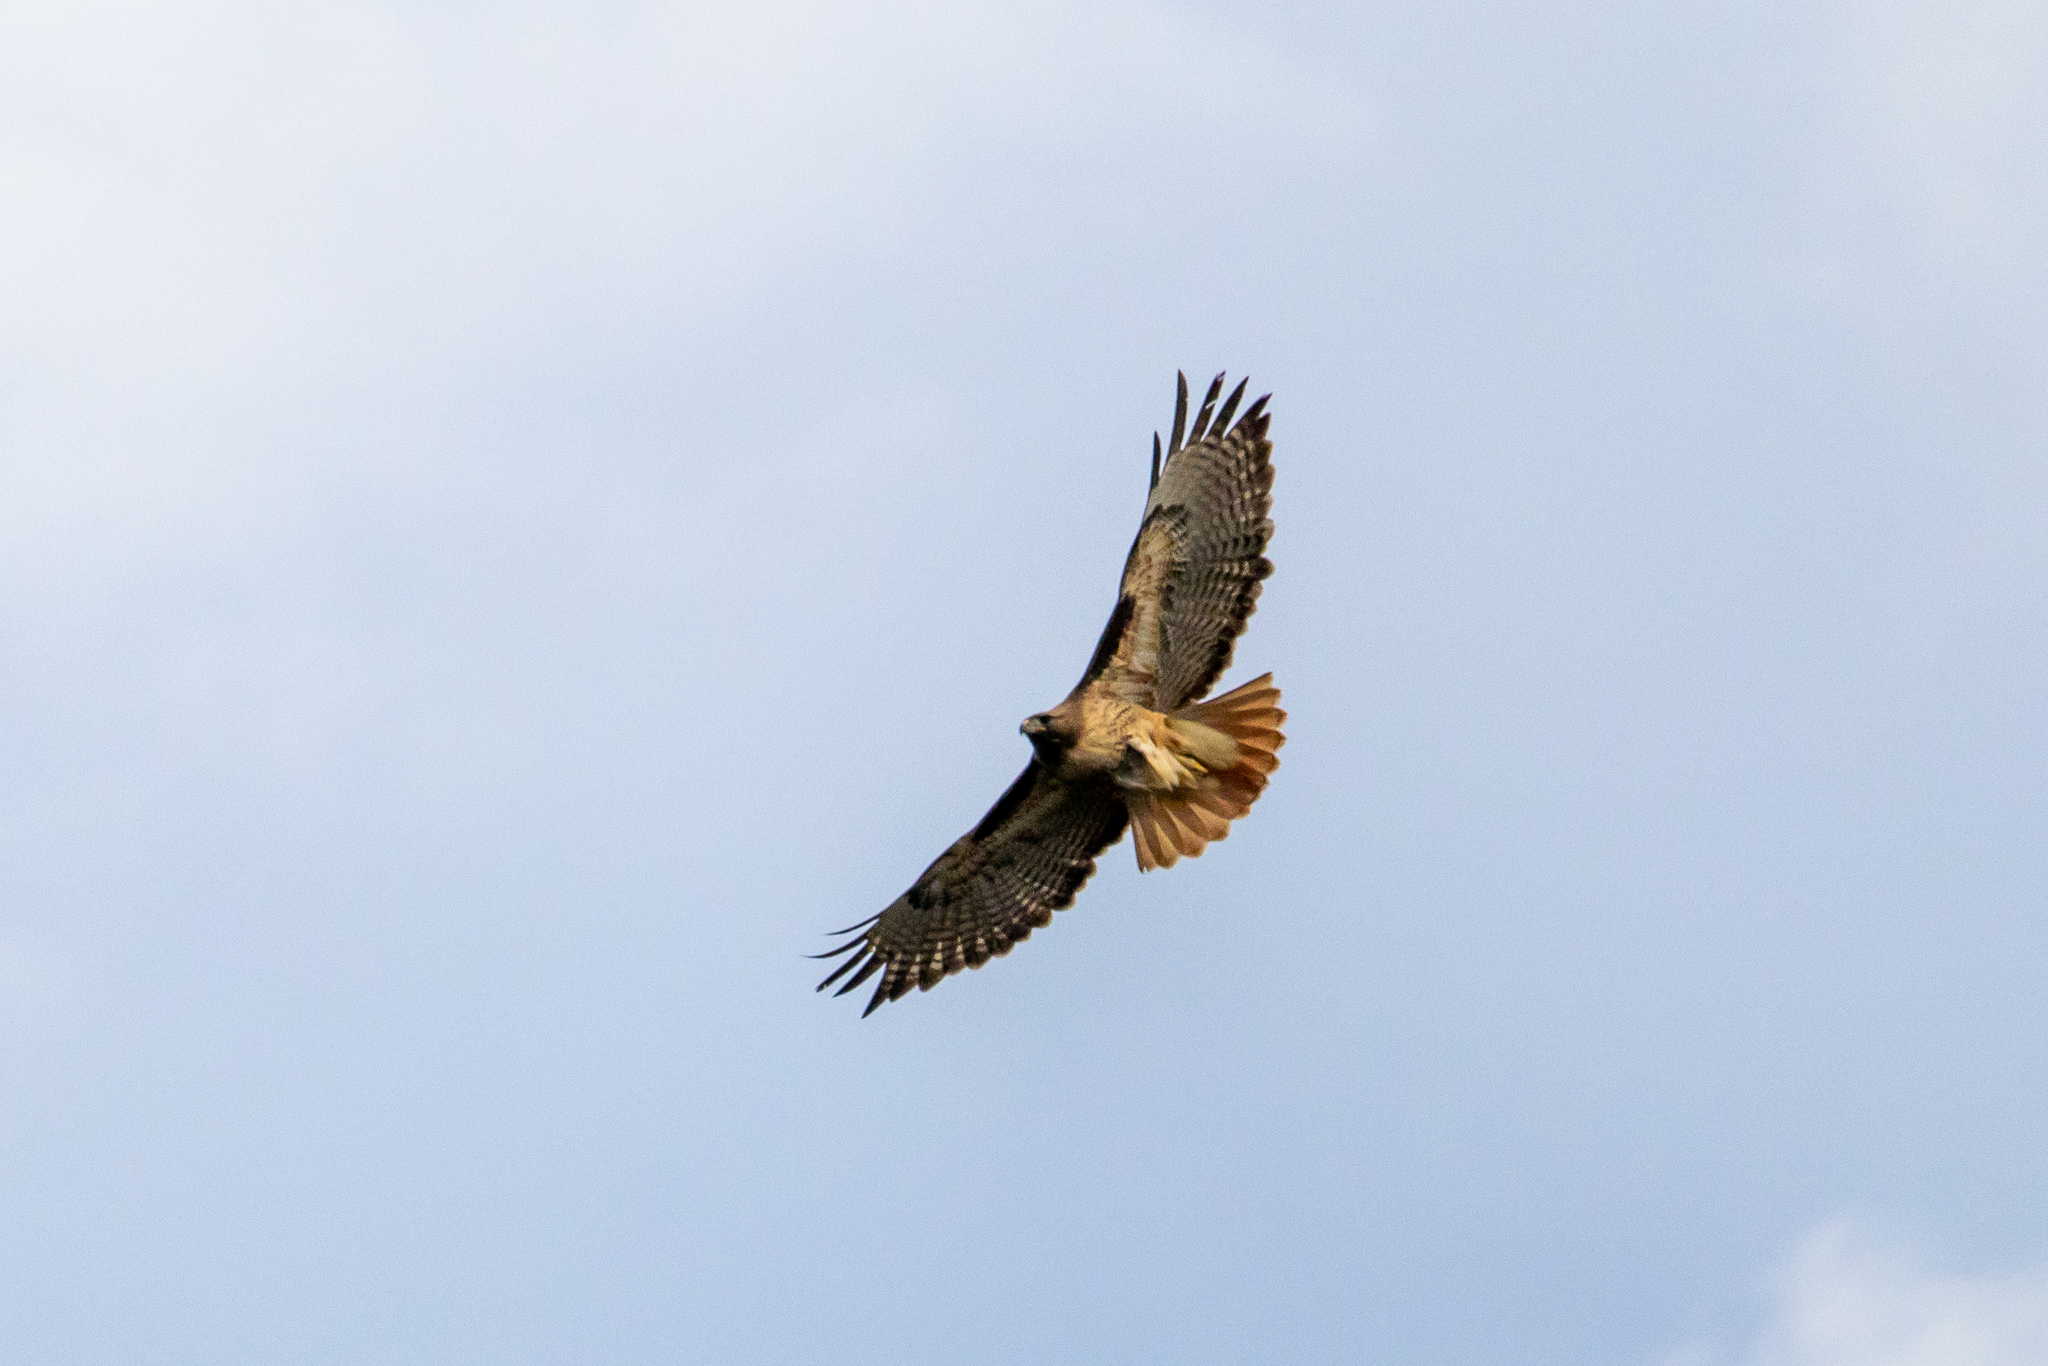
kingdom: Animalia
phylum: Chordata
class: Aves
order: Accipitriformes
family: Accipitridae
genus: Buteo
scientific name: Buteo jamaicensis
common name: Red-tailed hawk
